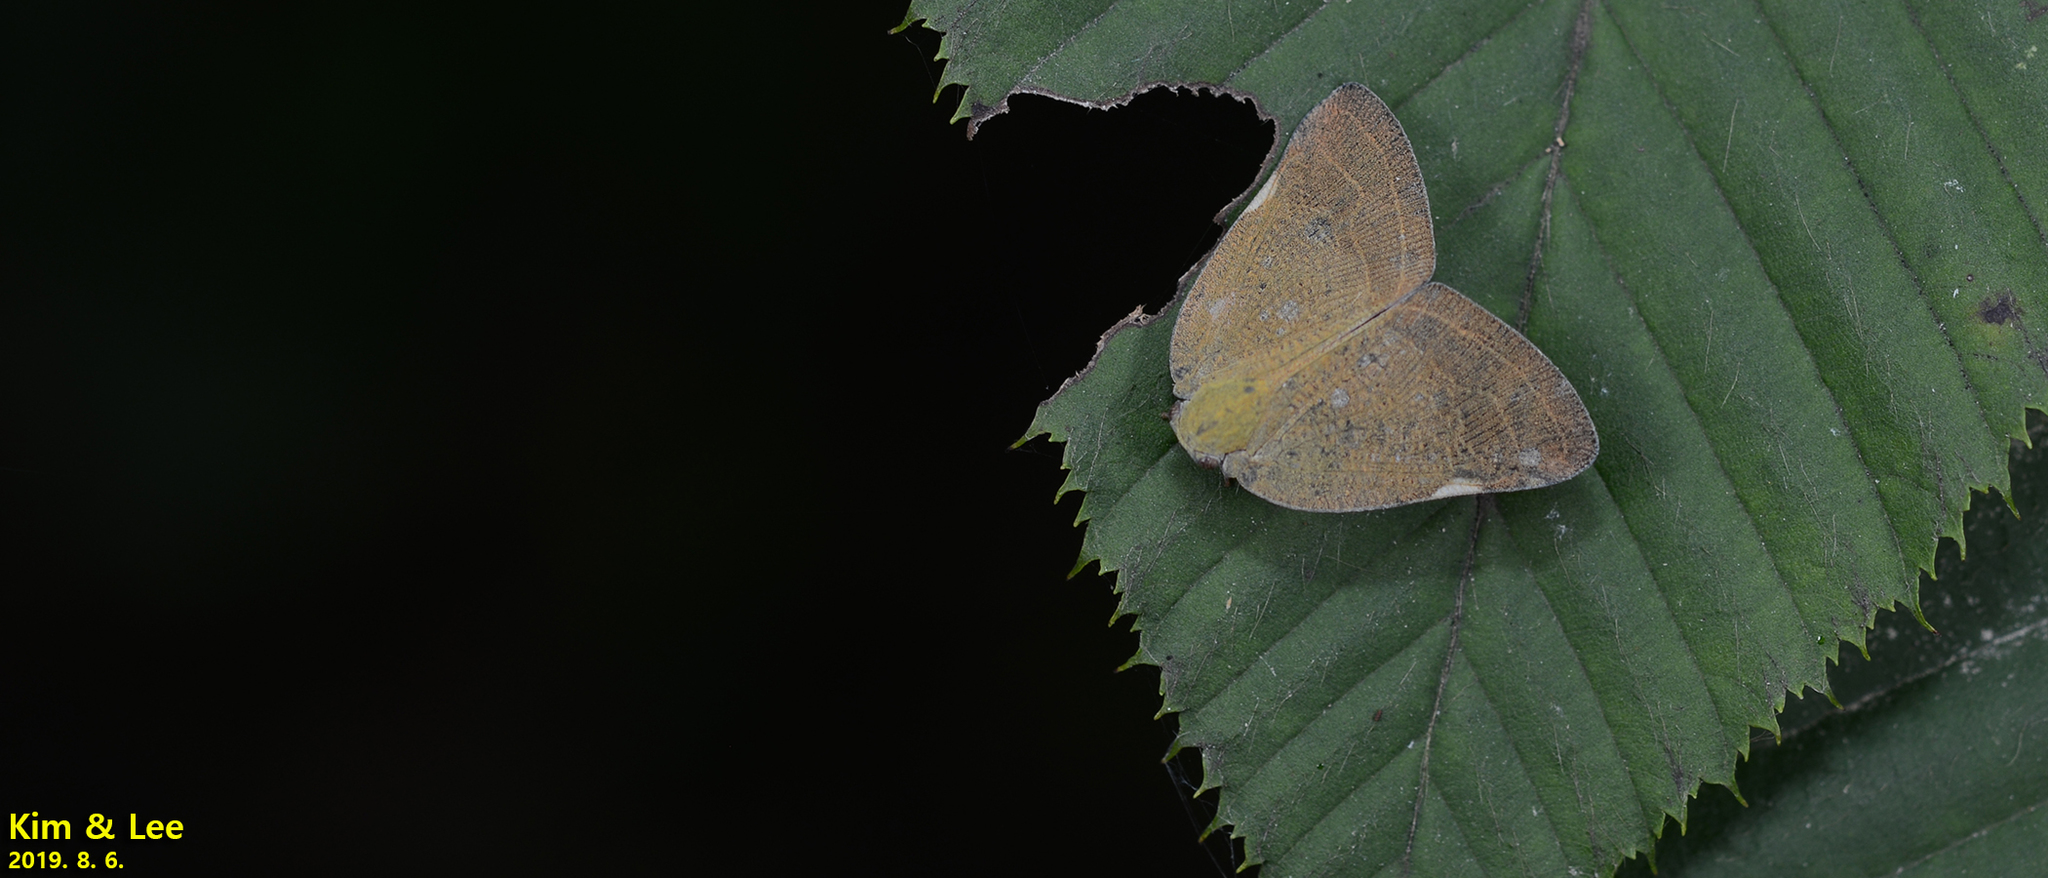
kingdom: Animalia
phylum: Arthropoda
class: Insecta
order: Hemiptera
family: Ricaniidae
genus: Ricanula
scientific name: Ricanula sublimata
